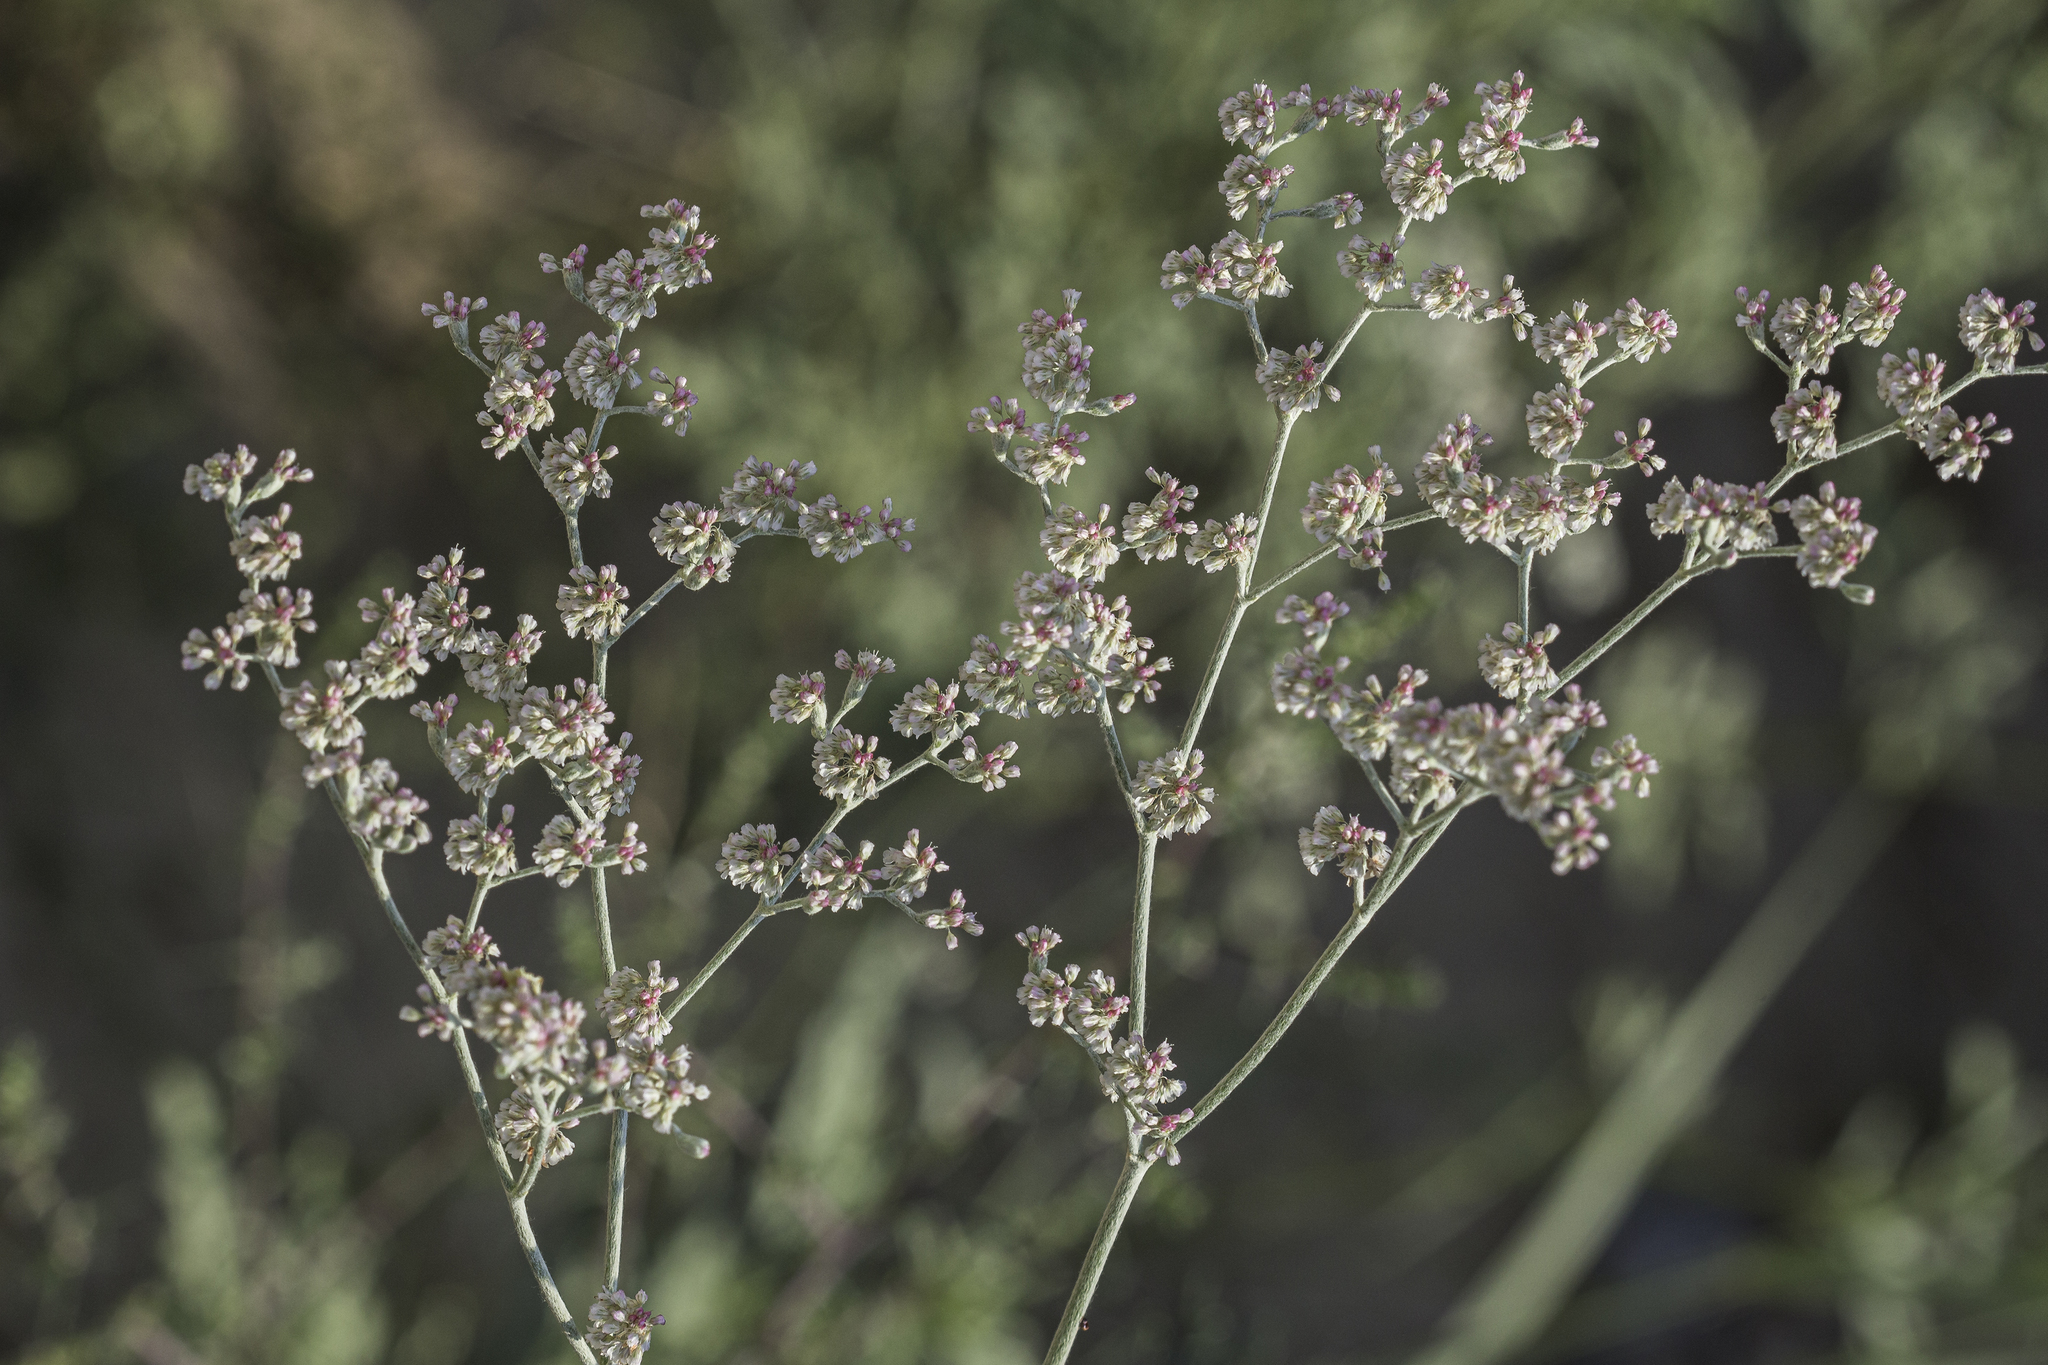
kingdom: Plantae
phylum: Tracheophyta
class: Magnoliopsida
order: Caryophyllales
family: Polygonaceae
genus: Eriogonum
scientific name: Eriogonum annuum
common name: Annual wild buckwheat
